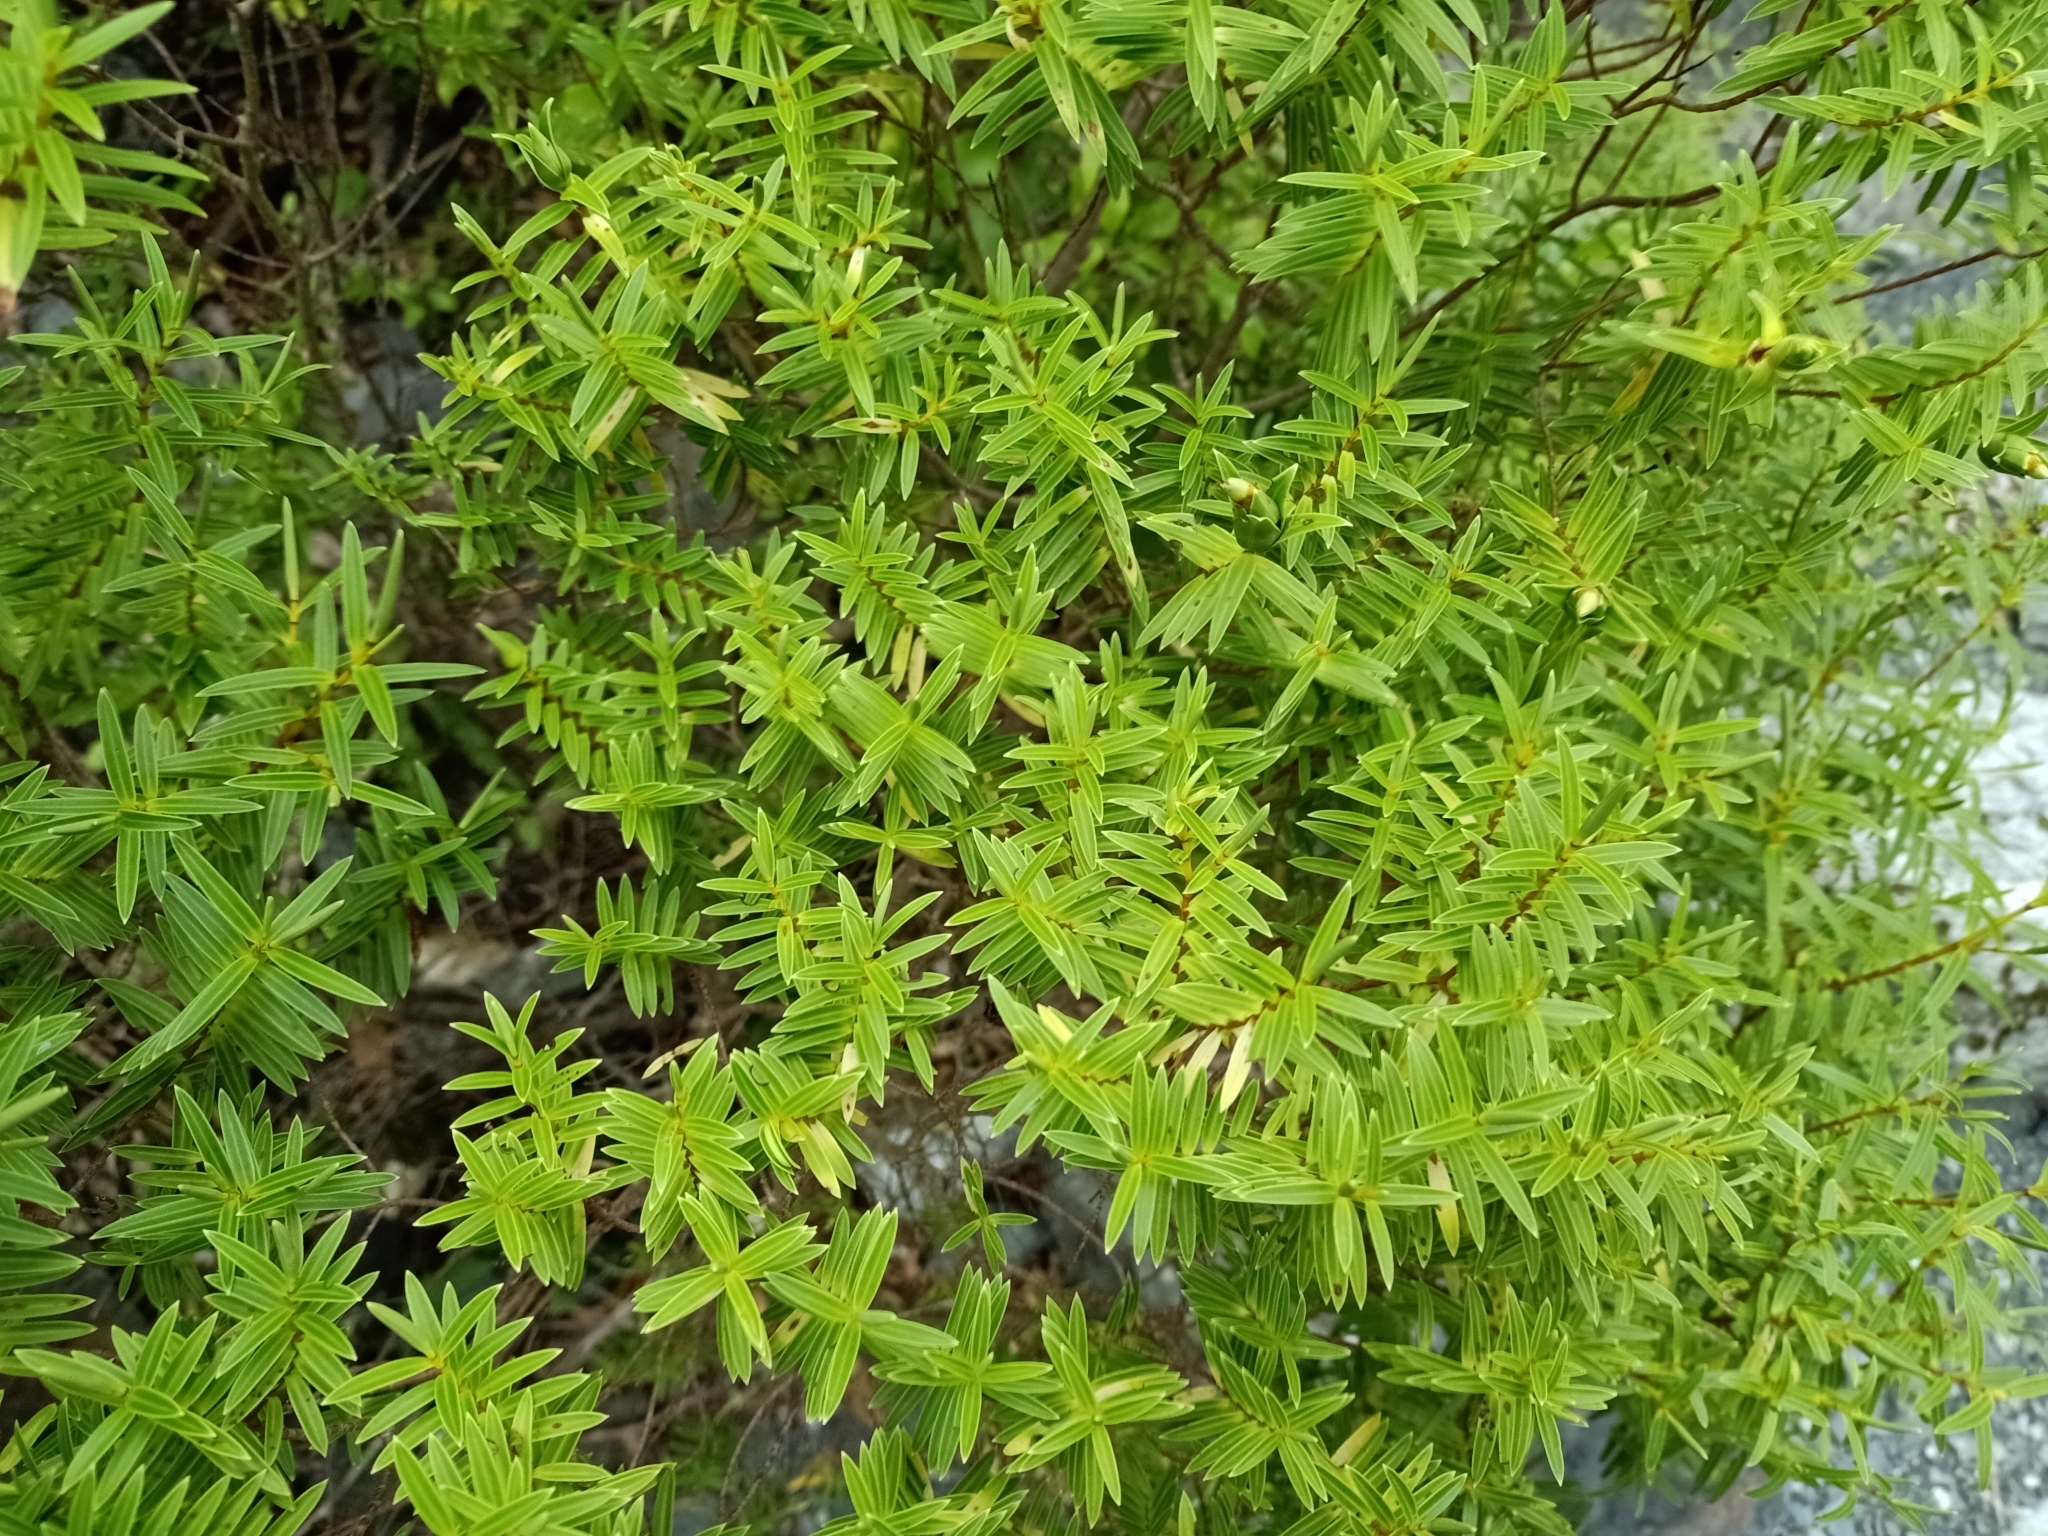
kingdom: Plantae
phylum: Tracheophyta
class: Magnoliopsida
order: Lamiales
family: Plantaginaceae
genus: Veronica
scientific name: Veronica parviflora
